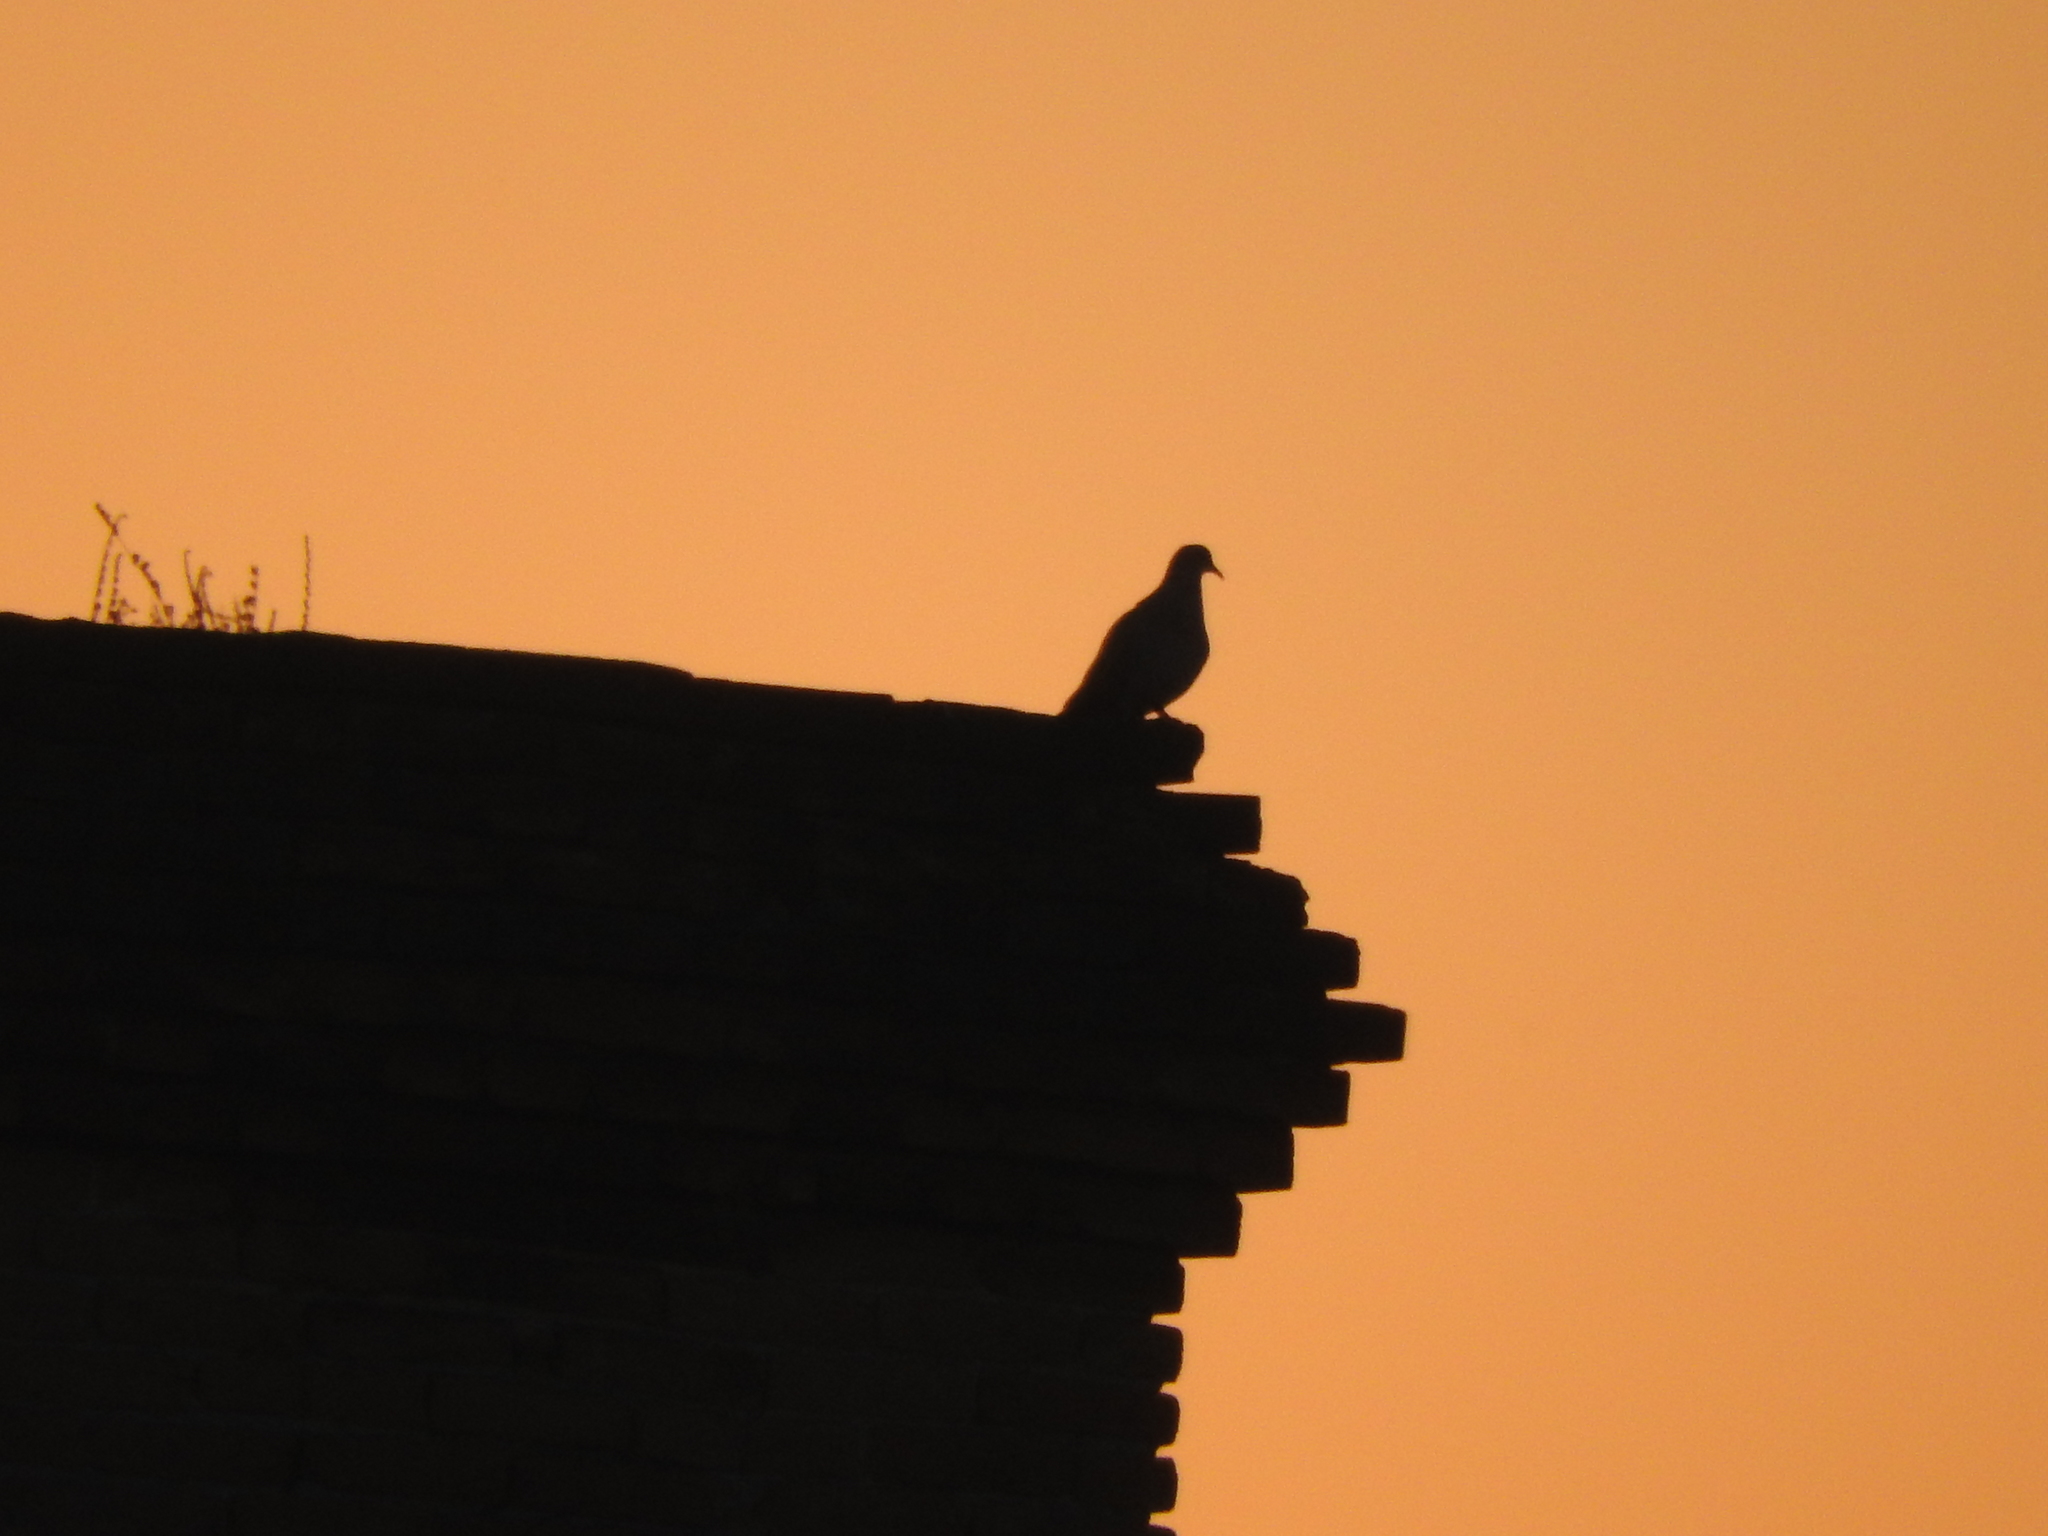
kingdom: Animalia
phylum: Chordata
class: Aves
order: Columbiformes
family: Columbidae
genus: Zenaida
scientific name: Zenaida asiatica
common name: White-winged dove
